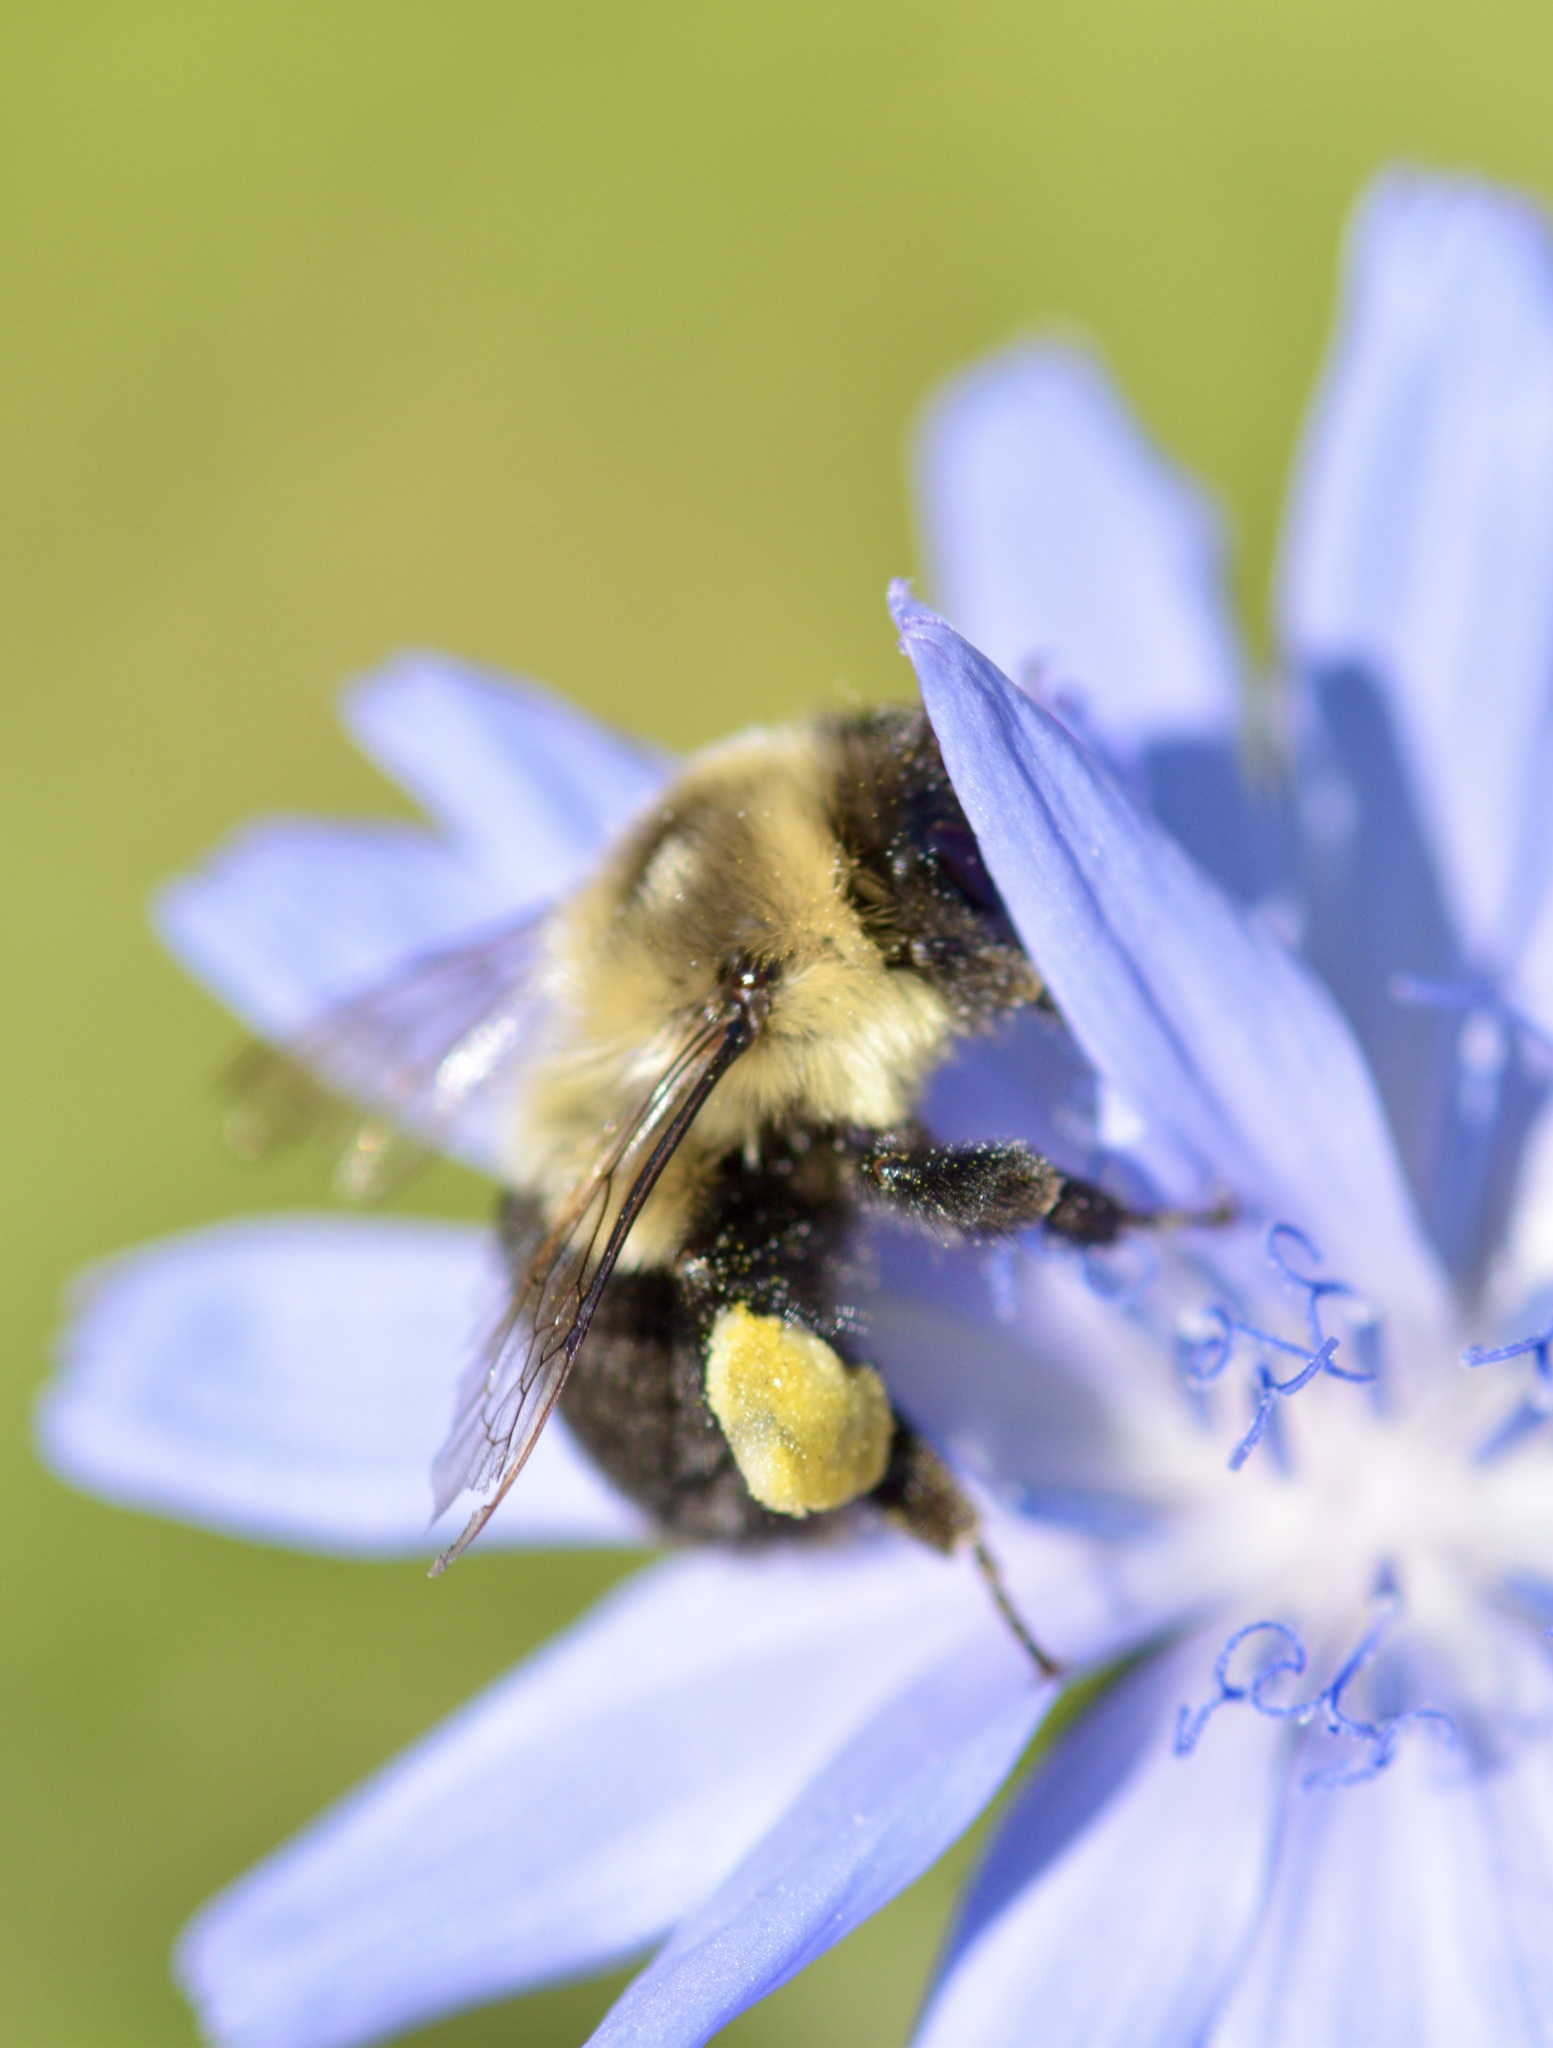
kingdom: Animalia
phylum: Arthropoda
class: Insecta
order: Hymenoptera
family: Apidae
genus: Bombus
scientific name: Bombus impatiens
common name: Common eastern bumble bee
